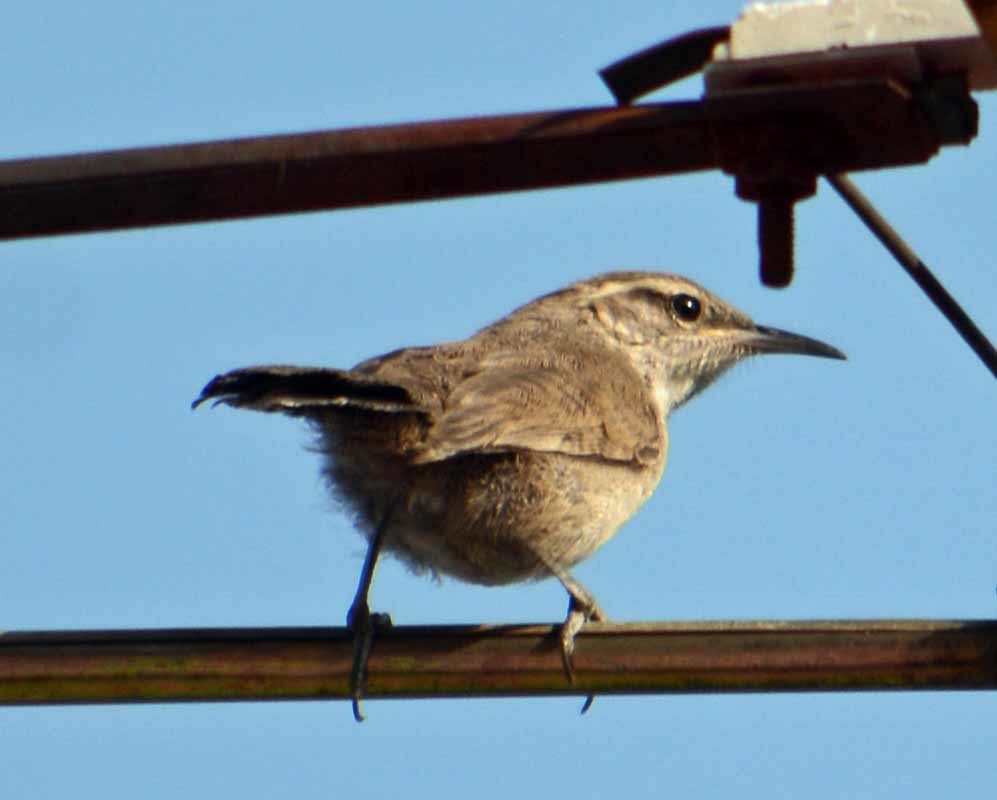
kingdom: Animalia
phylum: Chordata
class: Aves
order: Passeriformes
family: Troglodytidae
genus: Thryomanes
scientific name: Thryomanes bewickii
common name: Bewick's wren
